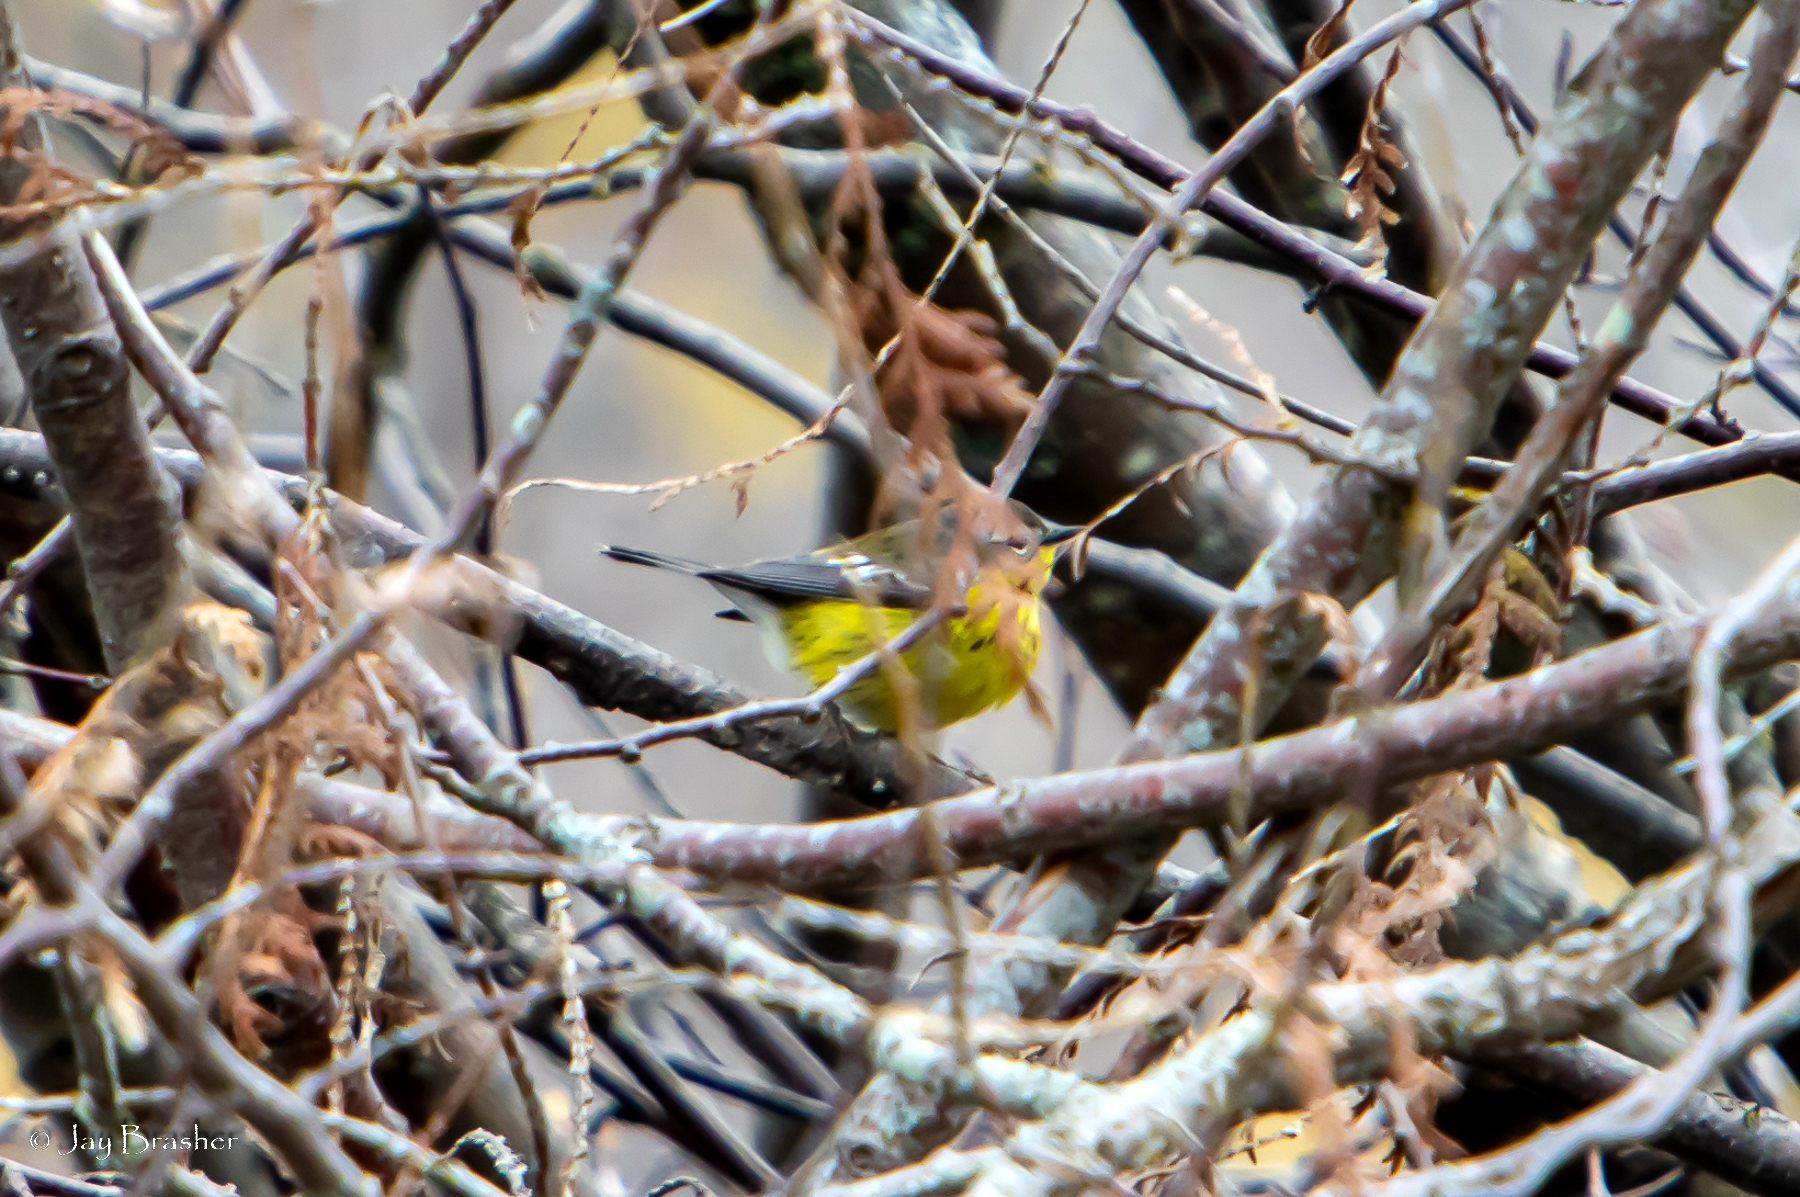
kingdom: Animalia
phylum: Chordata
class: Aves
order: Passeriformes
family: Parulidae
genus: Setophaga
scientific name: Setophaga magnolia
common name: Magnolia warbler
